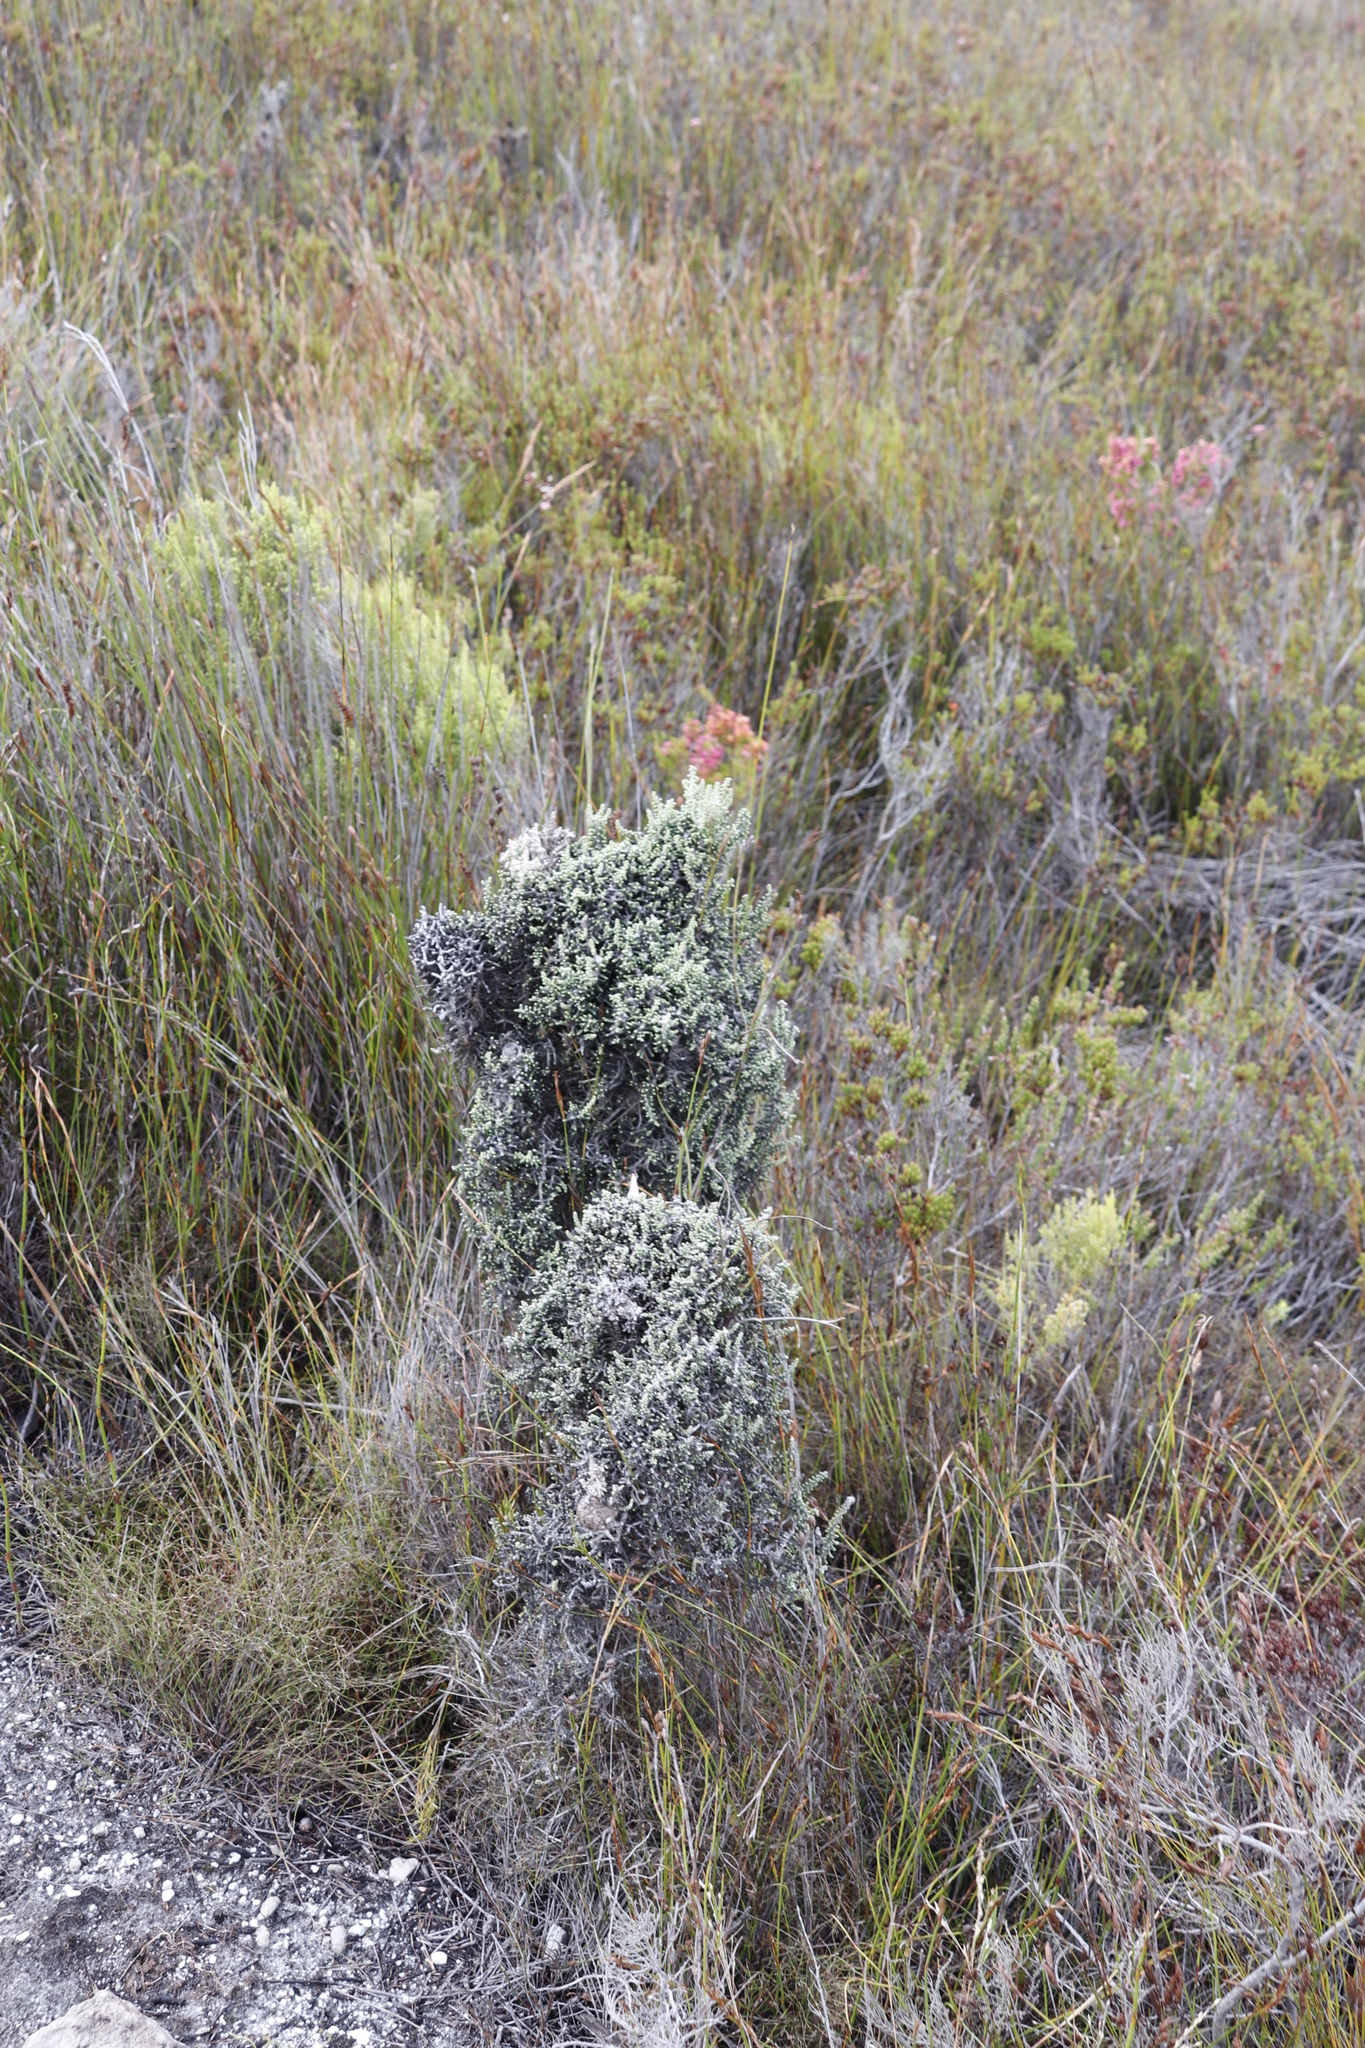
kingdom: Plantae
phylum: Tracheophyta
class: Magnoliopsida
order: Asterales
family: Asteraceae
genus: Phaenocoma
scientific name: Phaenocoma prolifera
